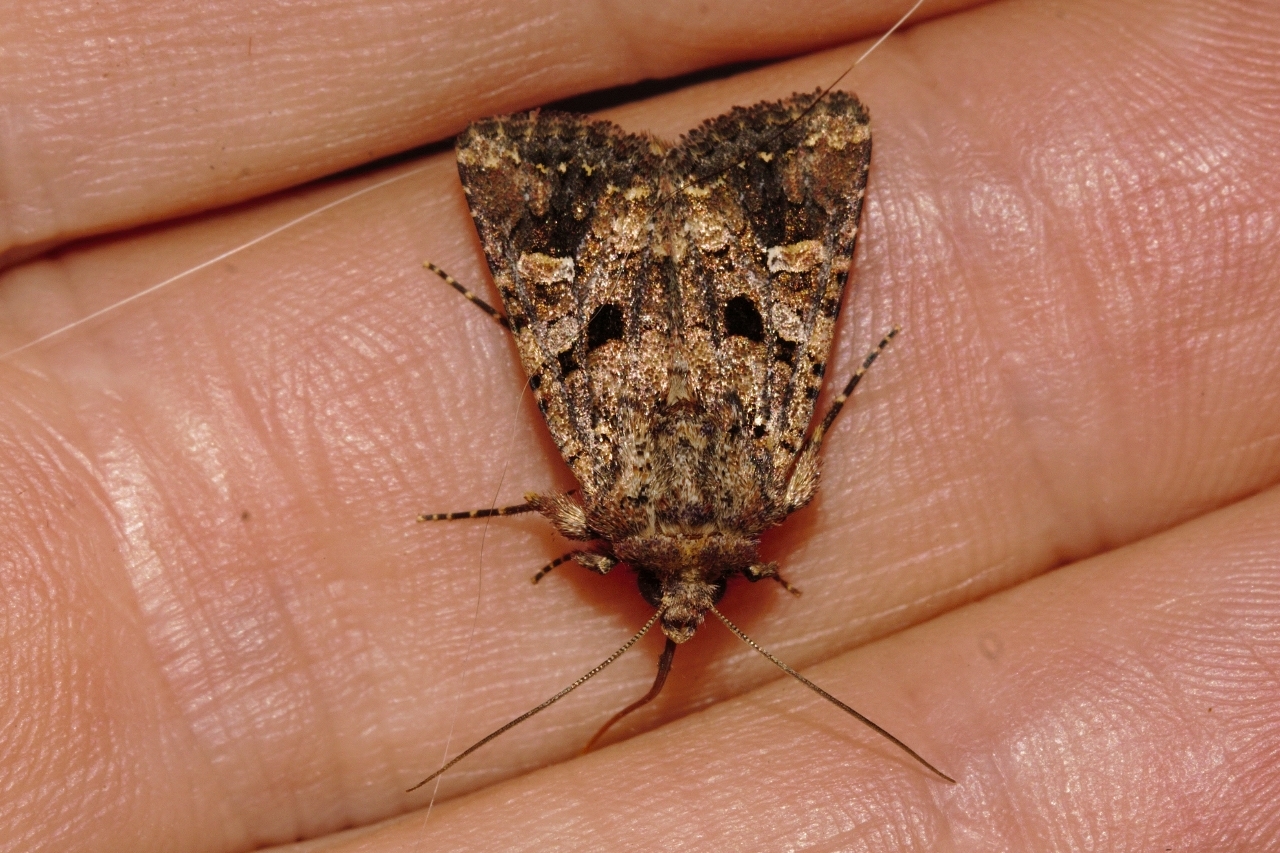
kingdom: Animalia
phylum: Arthropoda
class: Insecta
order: Lepidoptera
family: Noctuidae
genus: Tycomarptes
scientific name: Tycomarptes inferior
